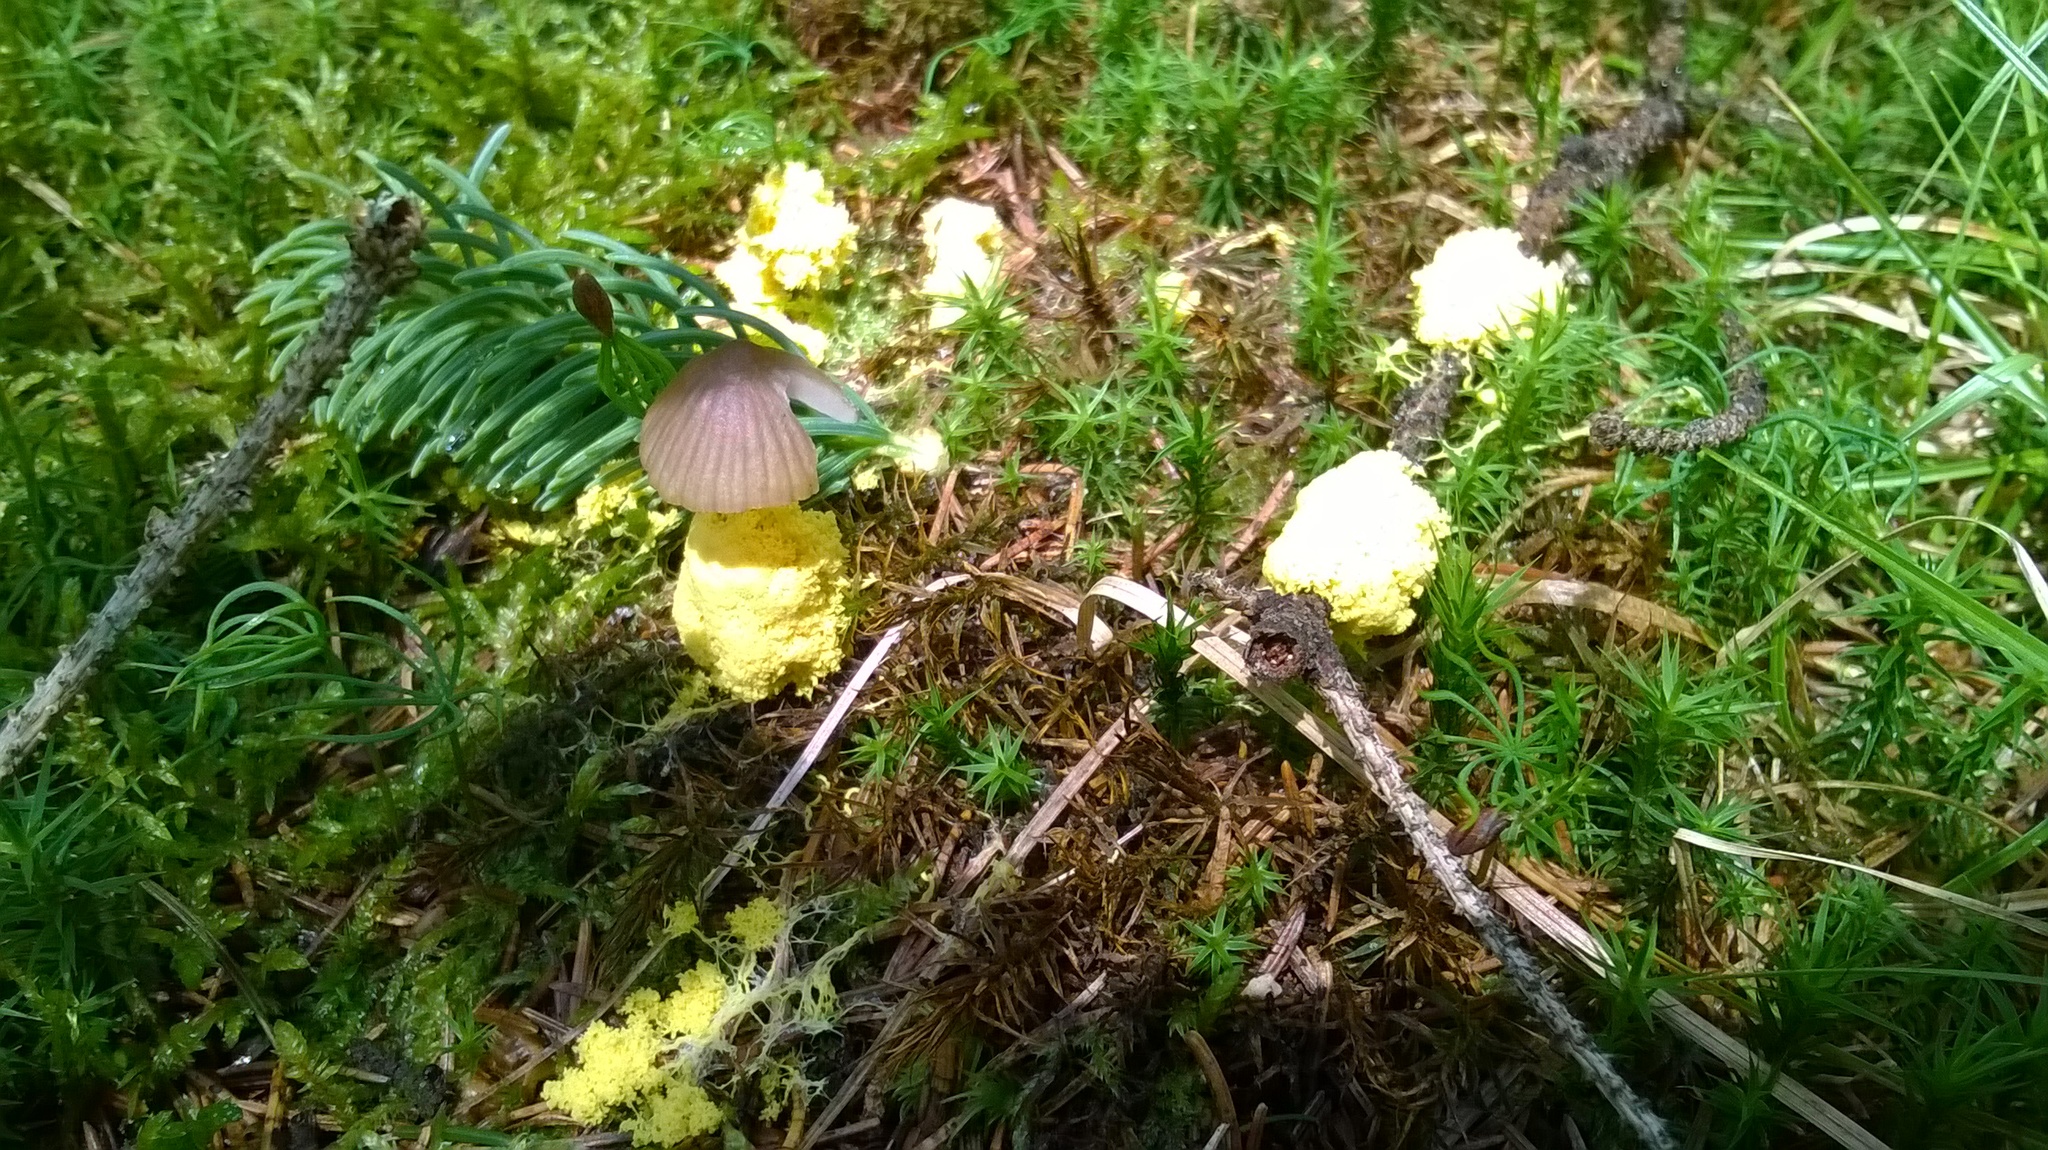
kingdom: Protozoa
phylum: Mycetozoa
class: Myxomycetes
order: Physarales
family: Physaraceae
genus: Fuligo
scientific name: Fuligo septica
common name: Dog vomit slime mold
